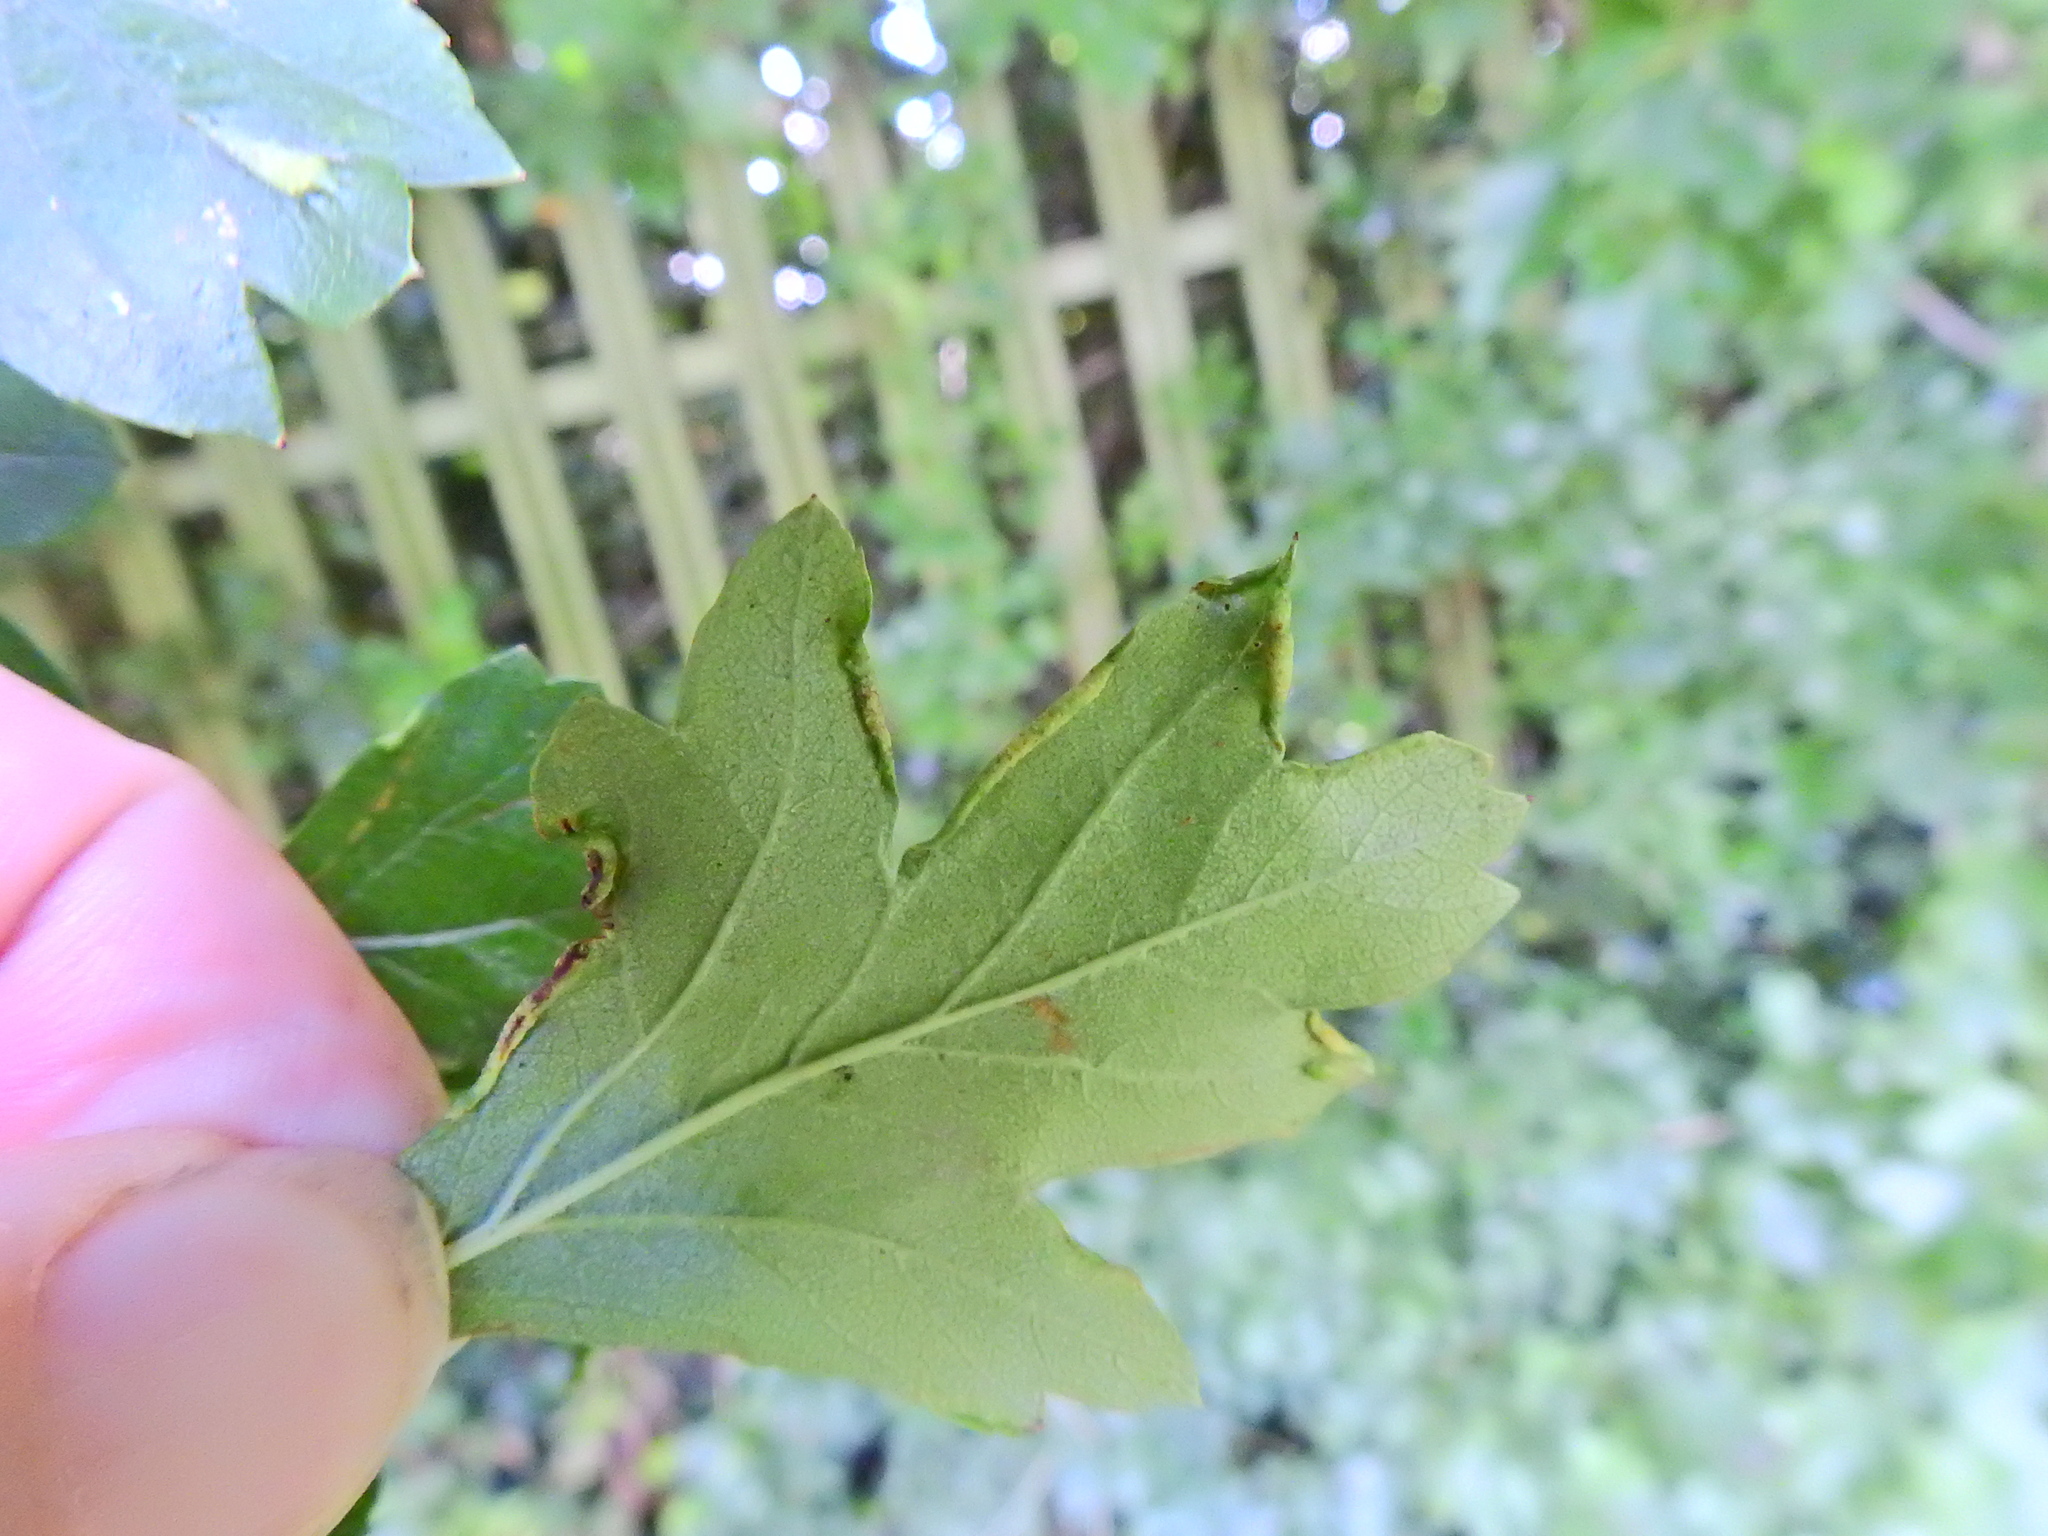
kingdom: Animalia
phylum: Arthropoda
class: Arachnida
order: Trombidiformes
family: Eriophyidae
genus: Phyllocoptes
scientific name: Phyllocoptes goniothorax
